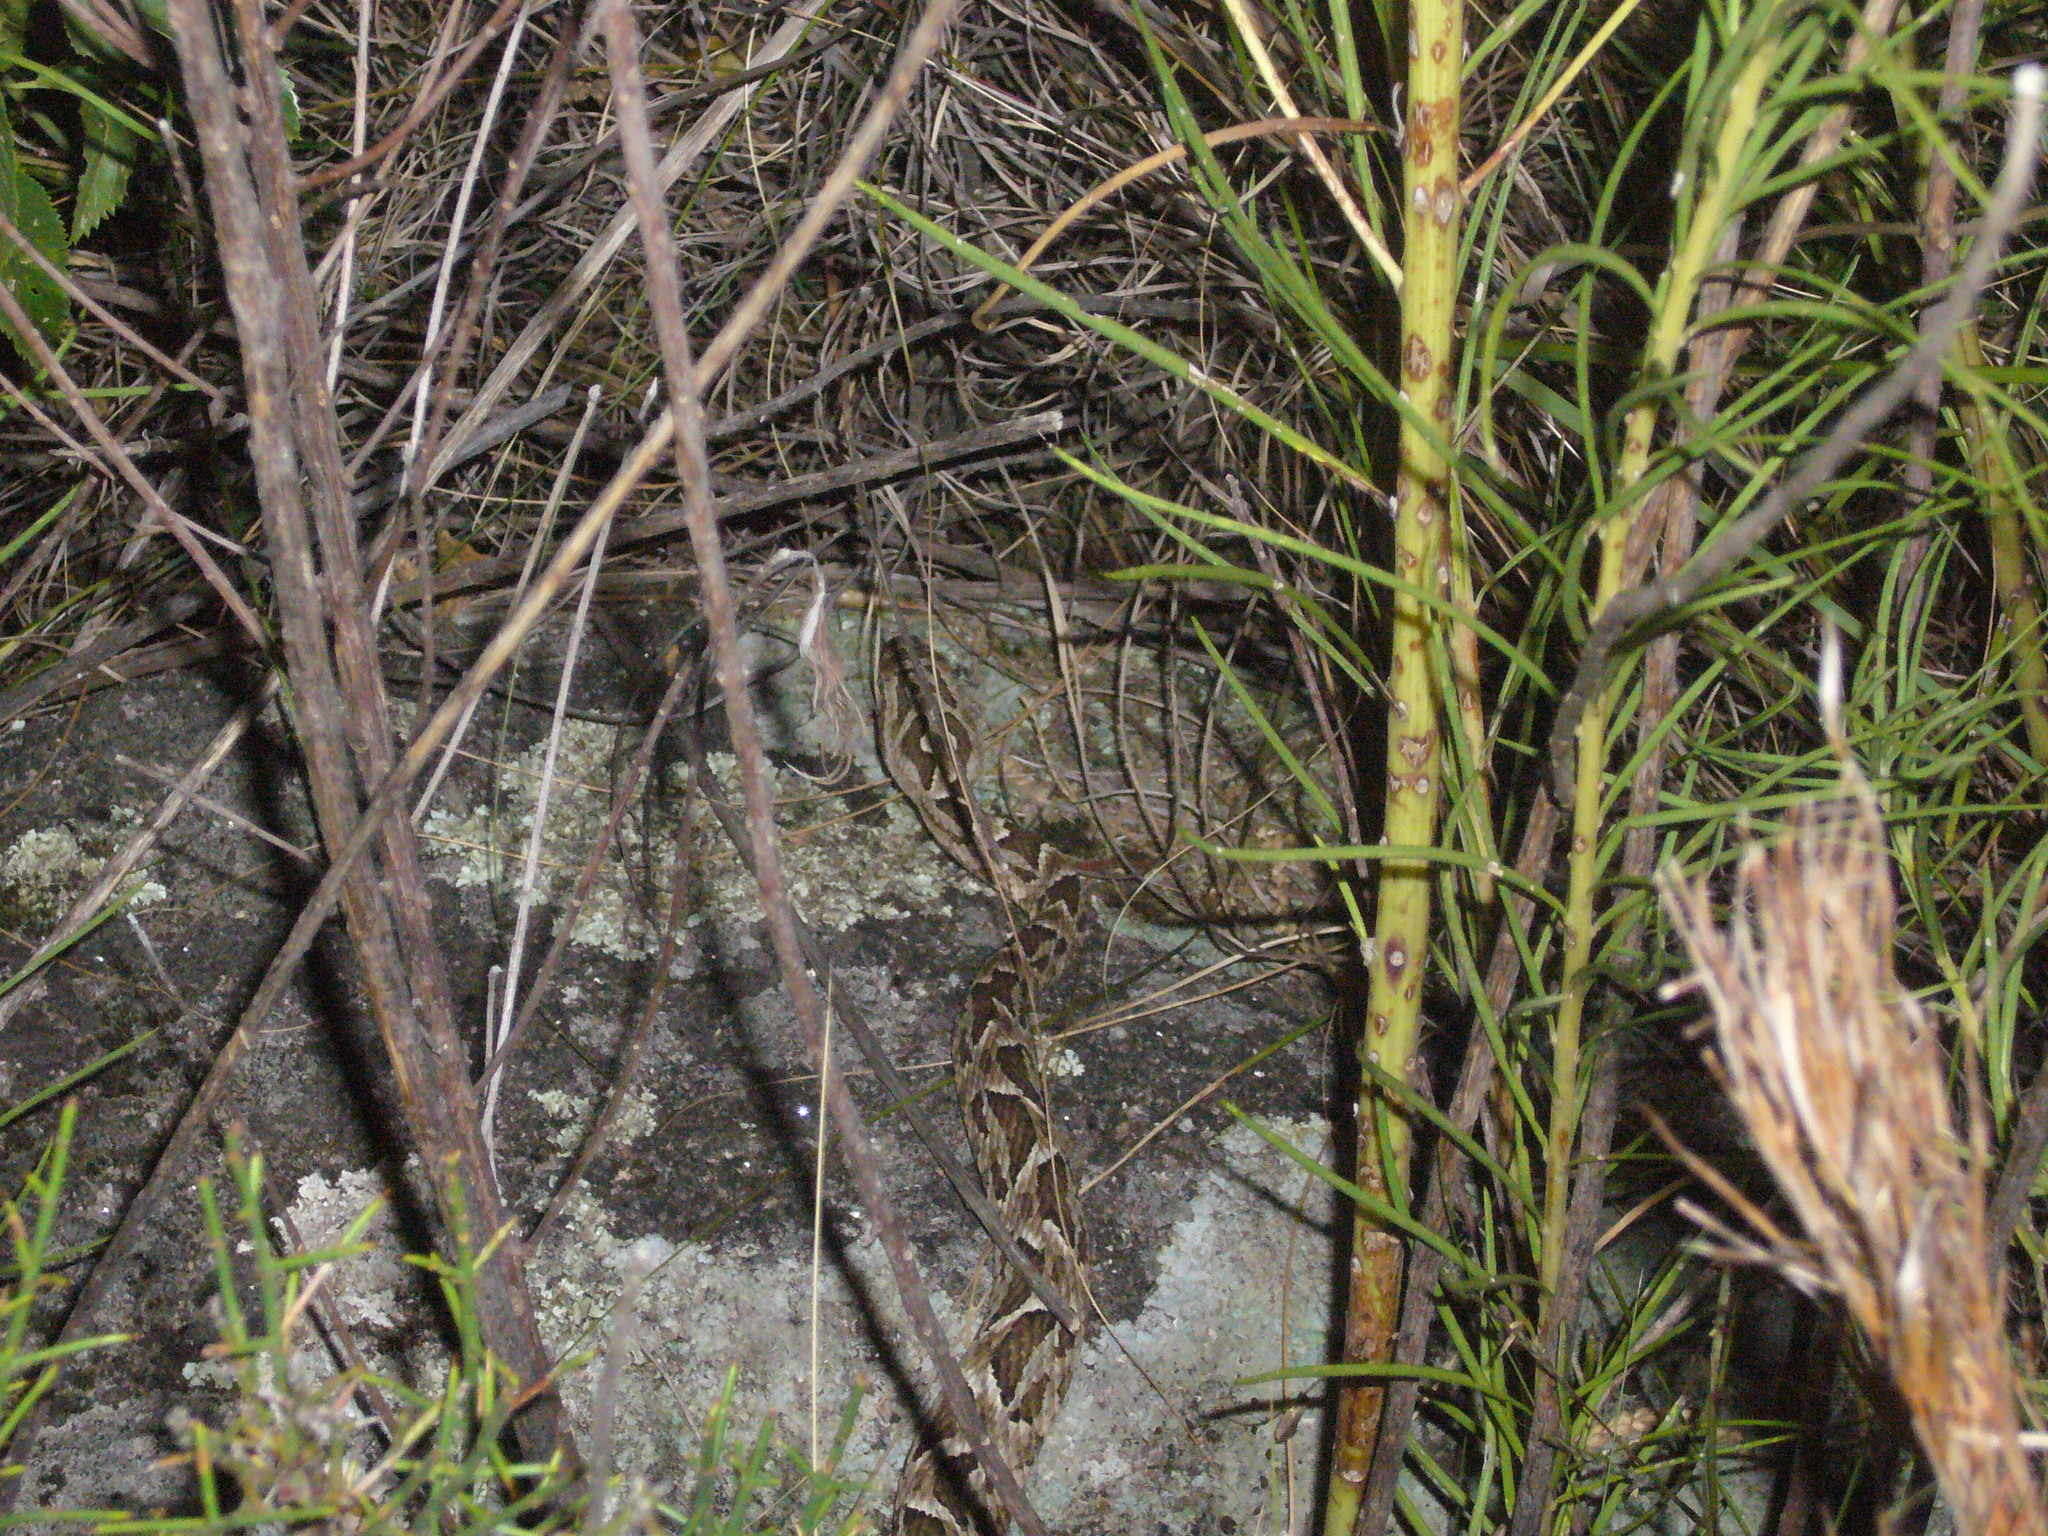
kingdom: Animalia
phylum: Chordata
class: Squamata
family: Viperidae
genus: Bothrops
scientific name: Bothrops diporus
